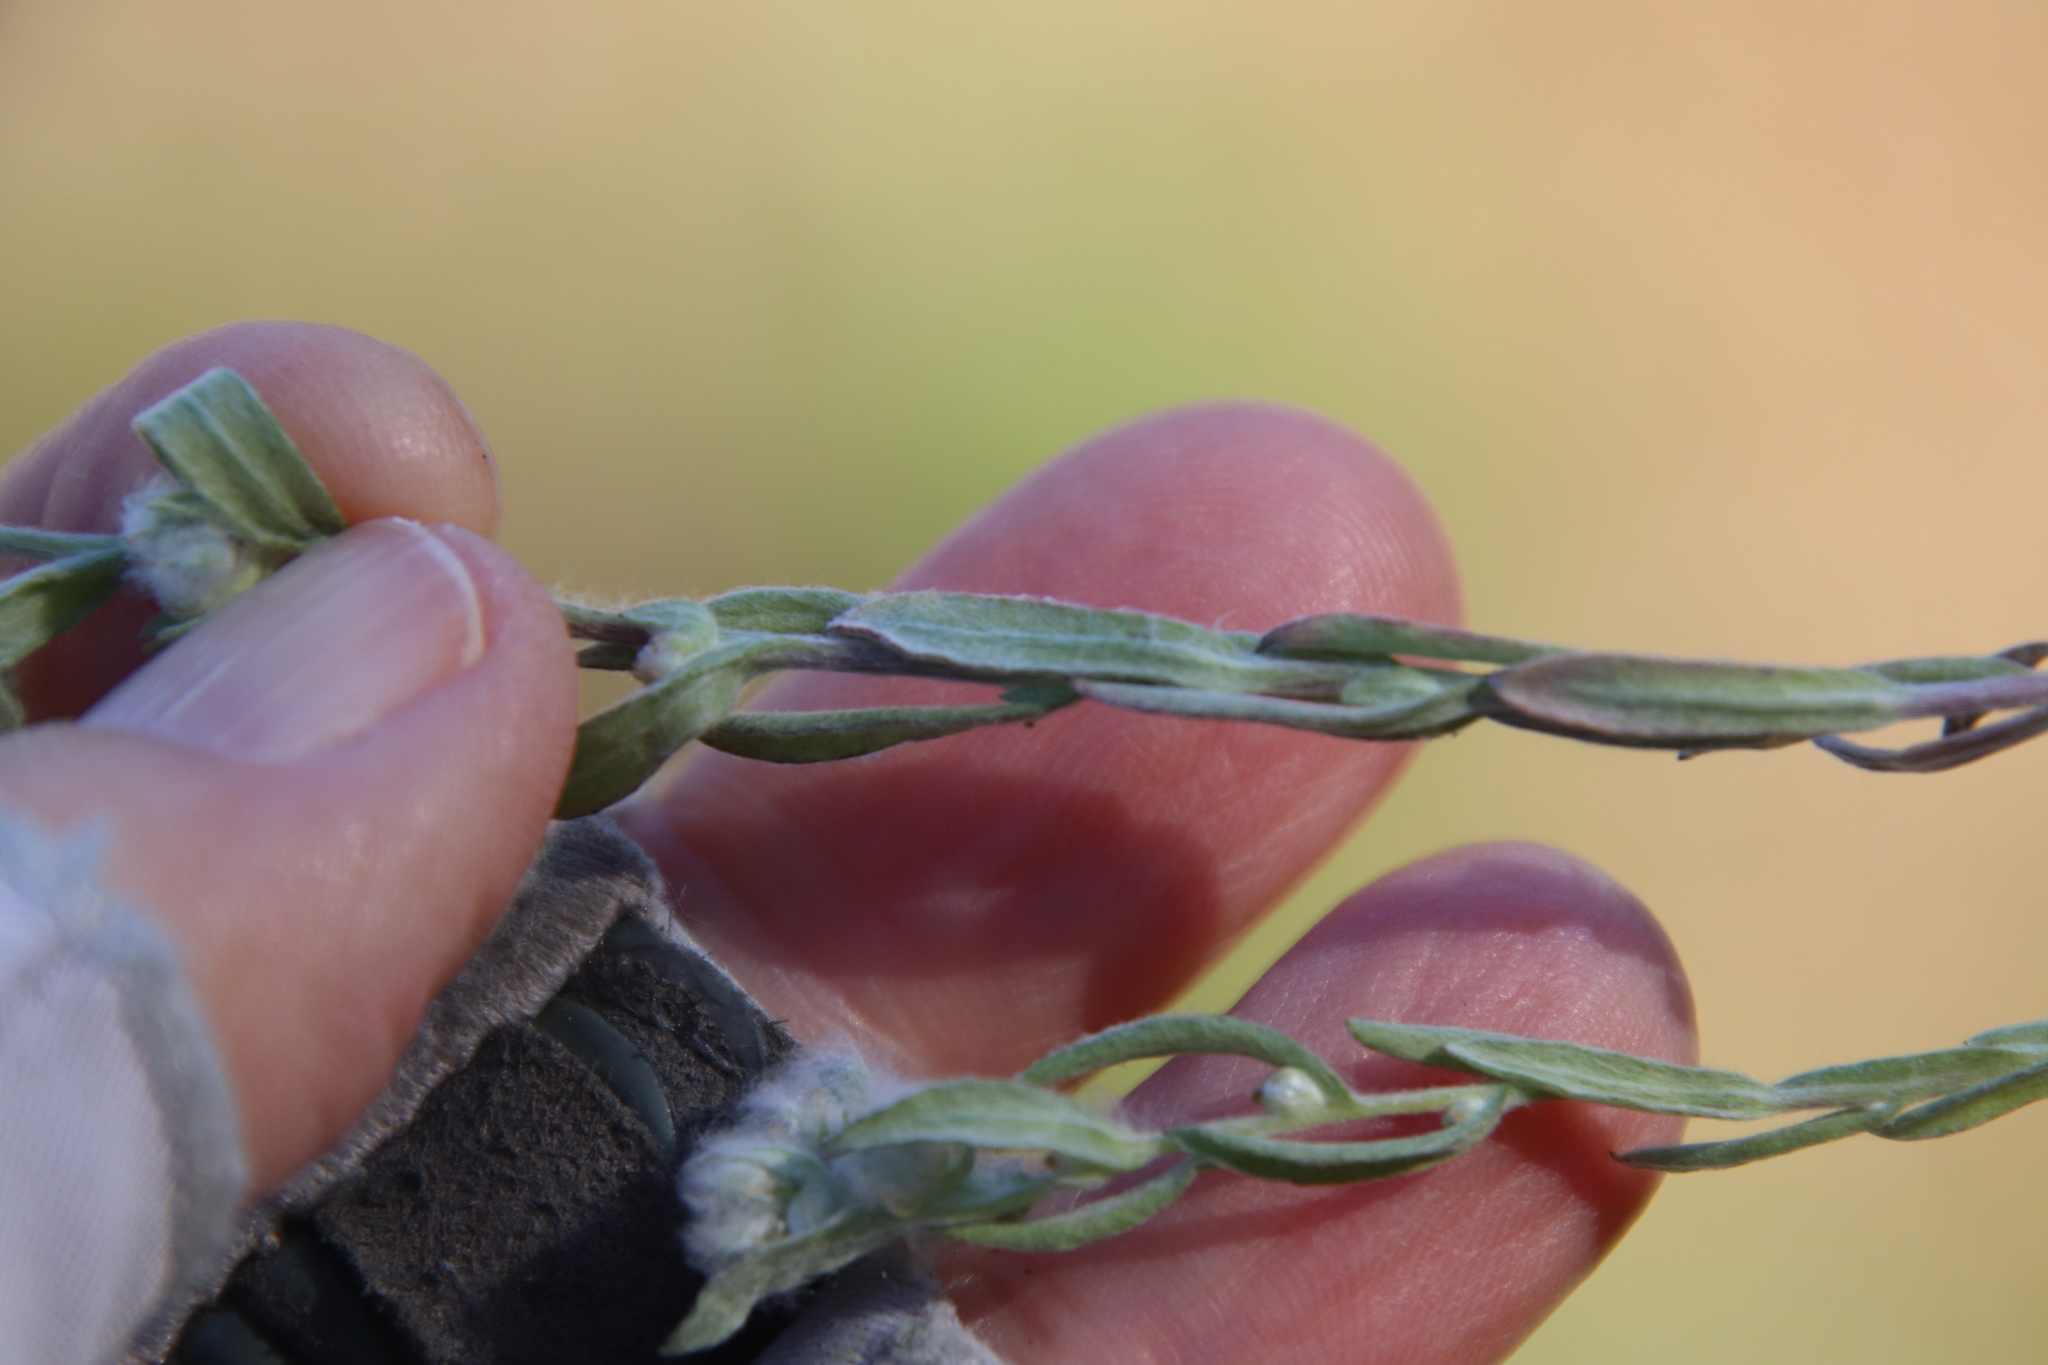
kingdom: Plantae
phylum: Tracheophyta
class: Magnoliopsida
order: Asterales
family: Asteraceae
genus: Bombycilaena
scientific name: Bombycilaena californica
